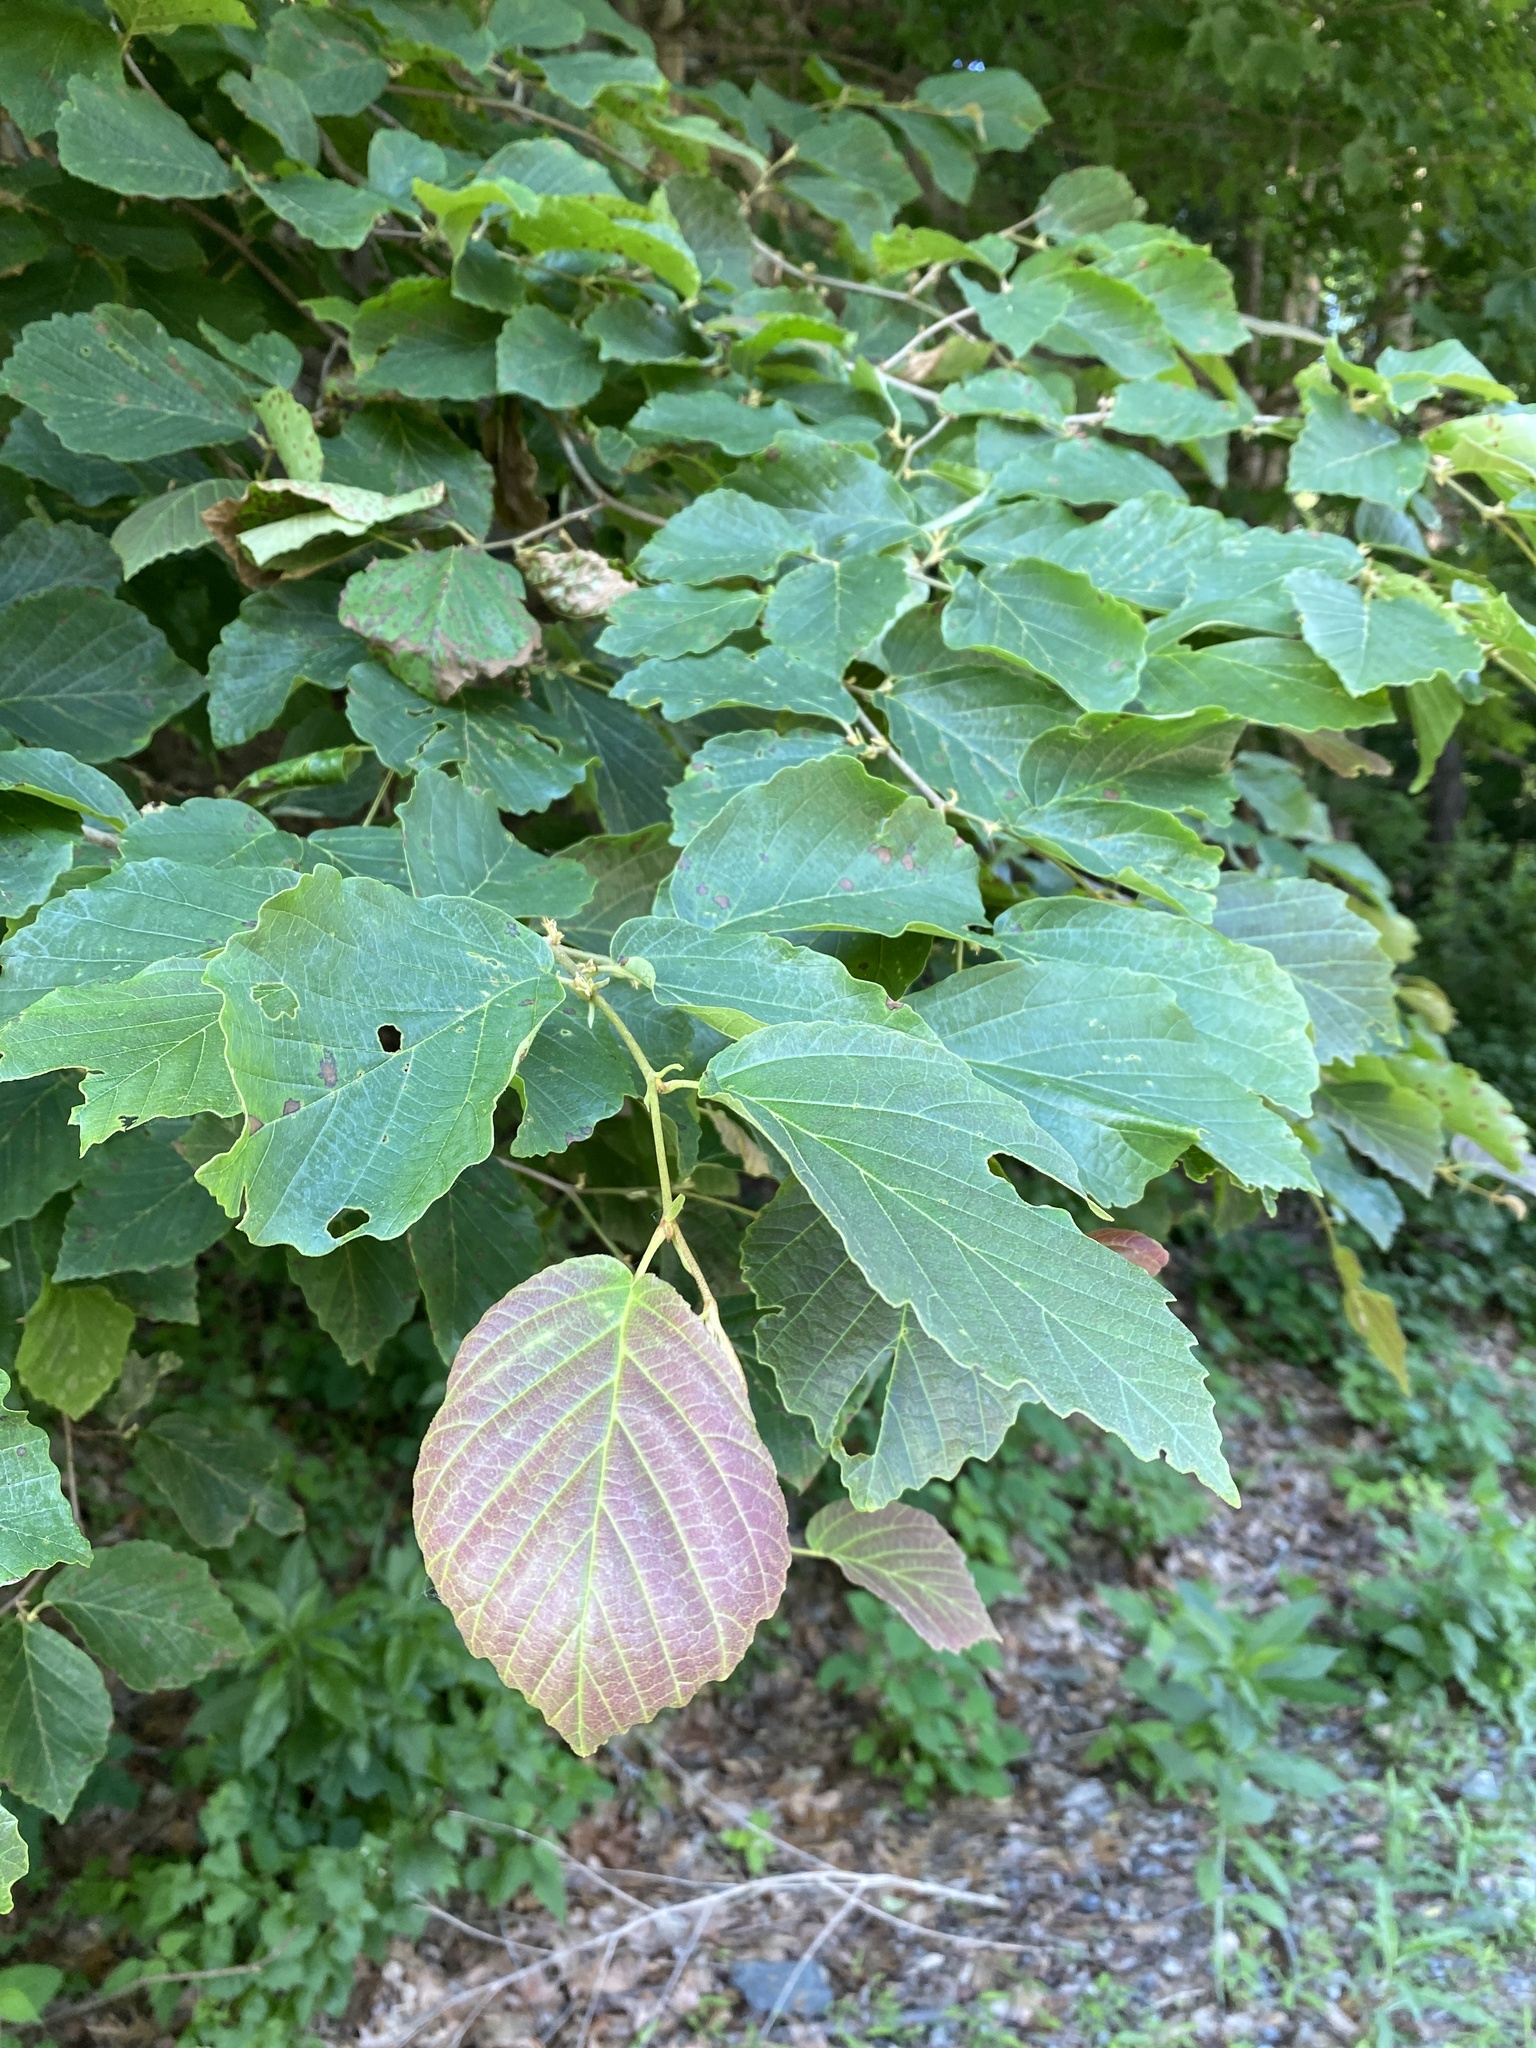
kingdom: Plantae
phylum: Tracheophyta
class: Magnoliopsida
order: Saxifragales
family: Hamamelidaceae
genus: Hamamelis
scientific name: Hamamelis virginiana
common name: Witch-hazel
